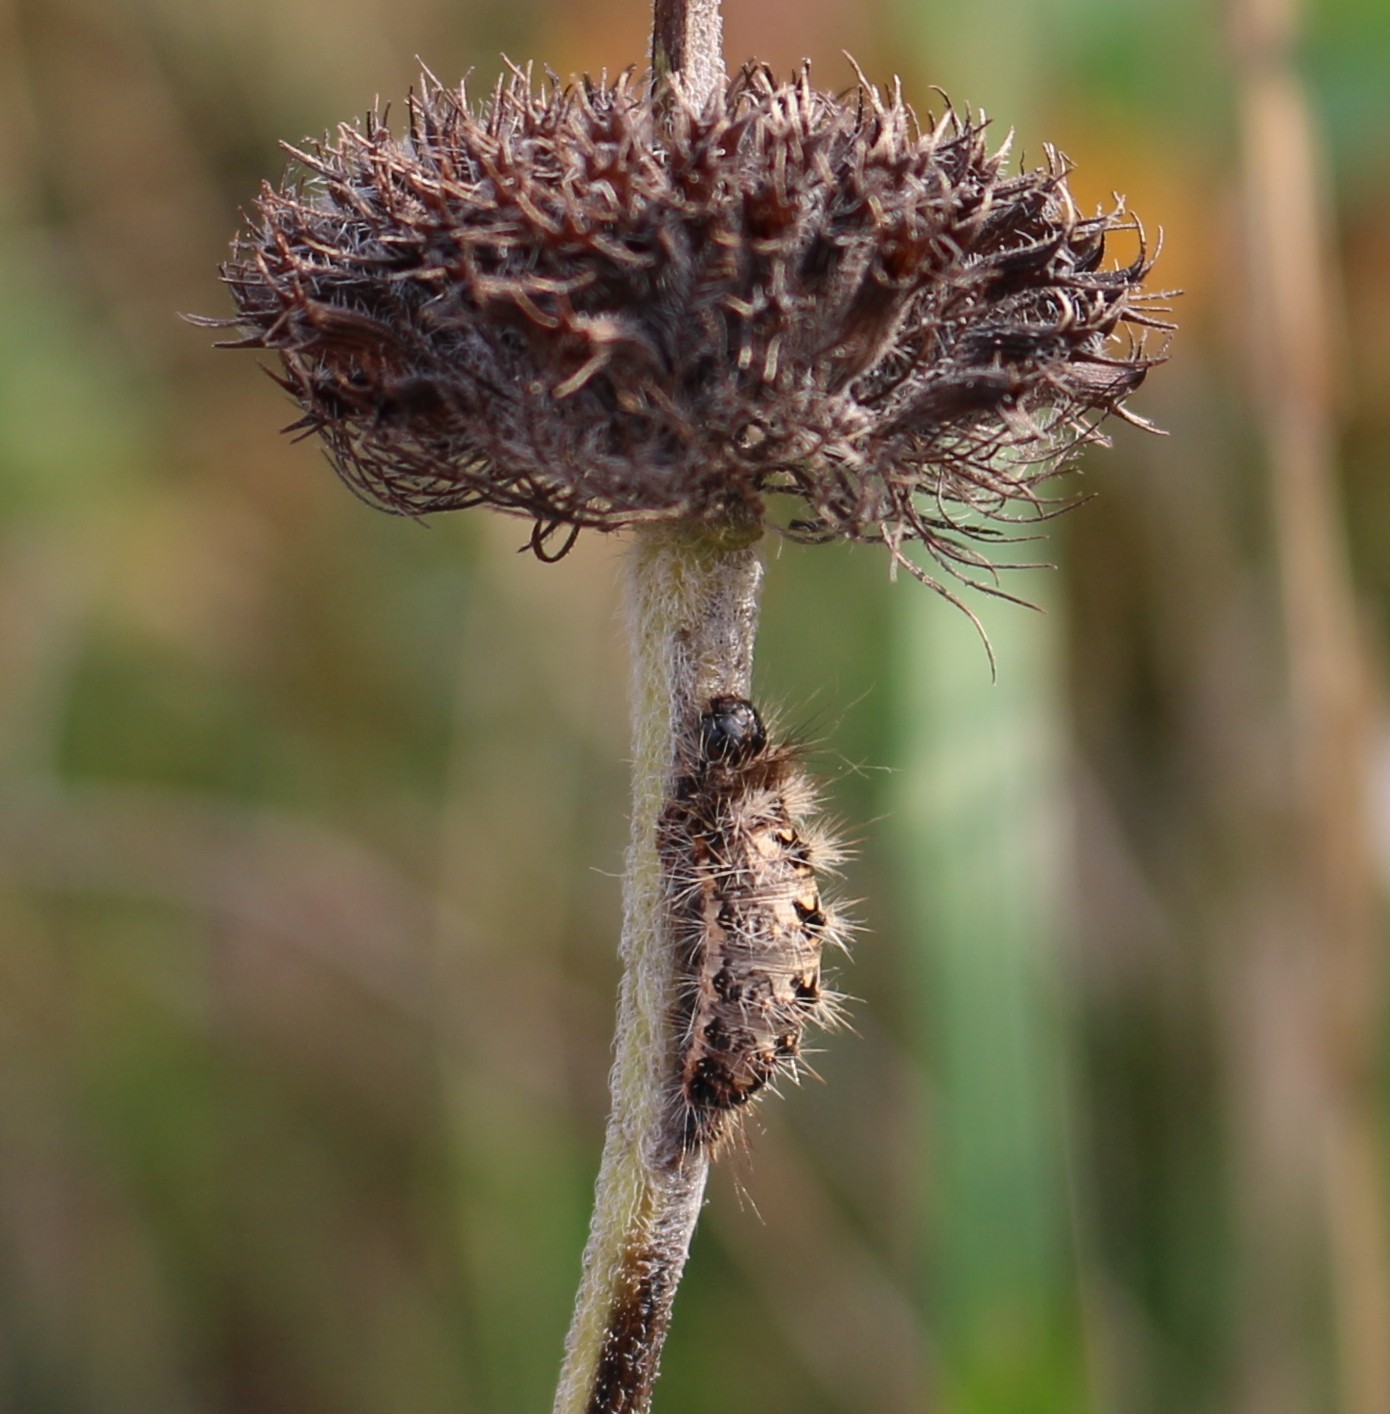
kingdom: Animalia
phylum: Arthropoda
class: Insecta
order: Lepidoptera
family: Noctuidae
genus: Acronicta
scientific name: Acronicta rumicis
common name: Knot grass
